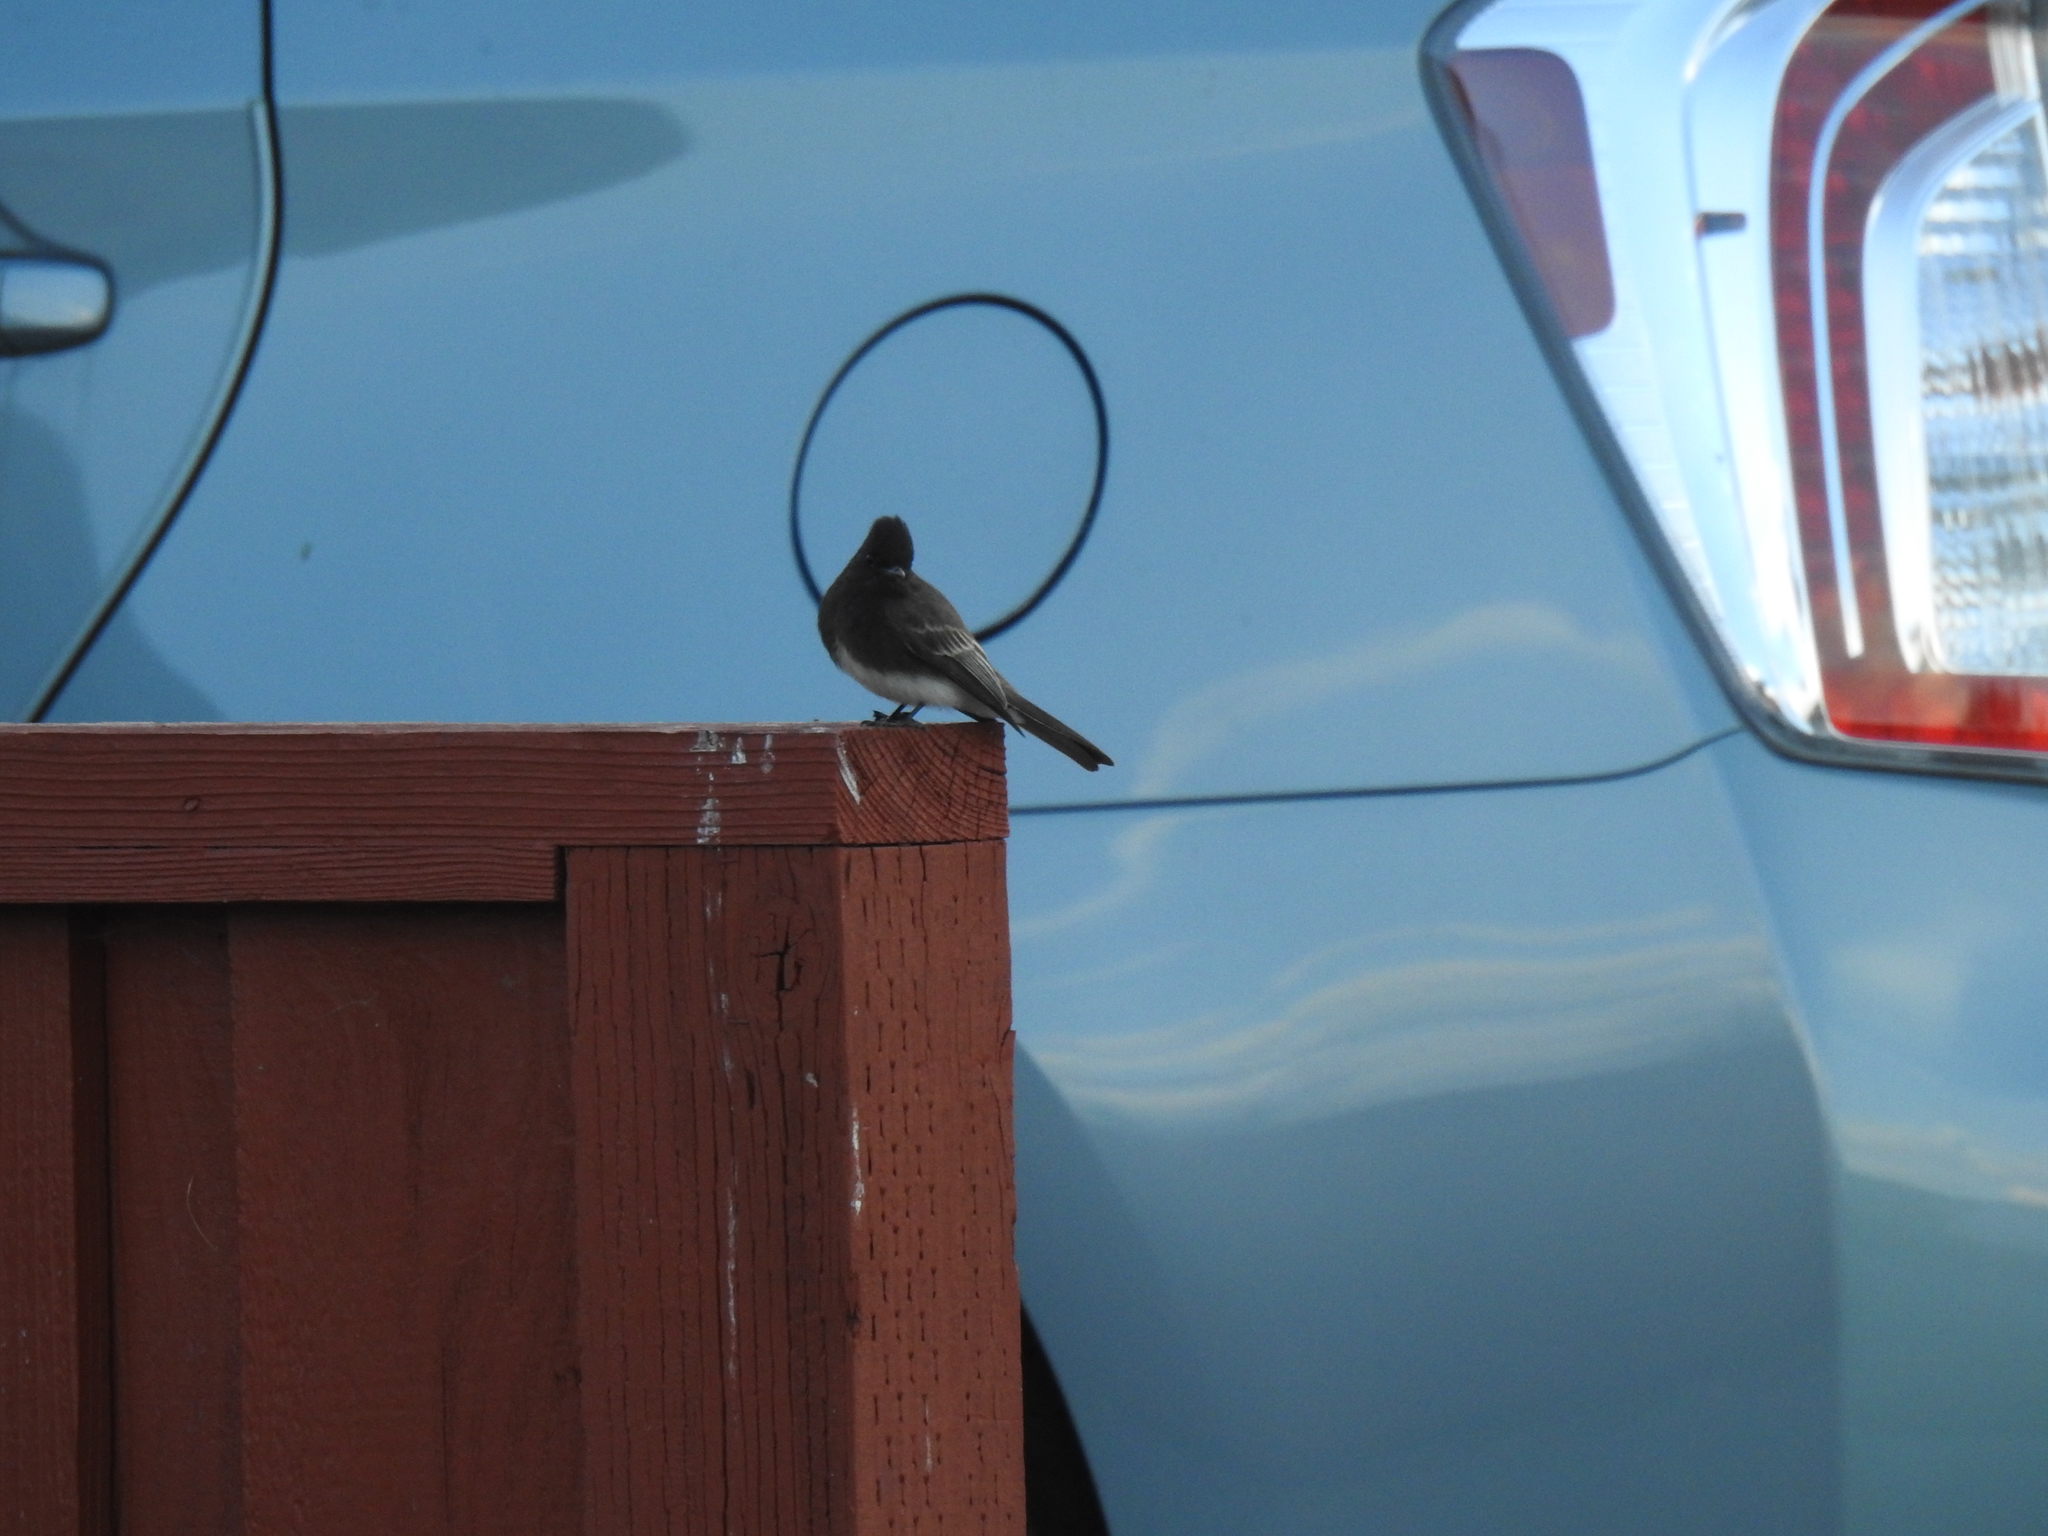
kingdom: Animalia
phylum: Chordata
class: Aves
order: Passeriformes
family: Tyrannidae
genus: Sayornis
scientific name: Sayornis nigricans
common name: Black phoebe
